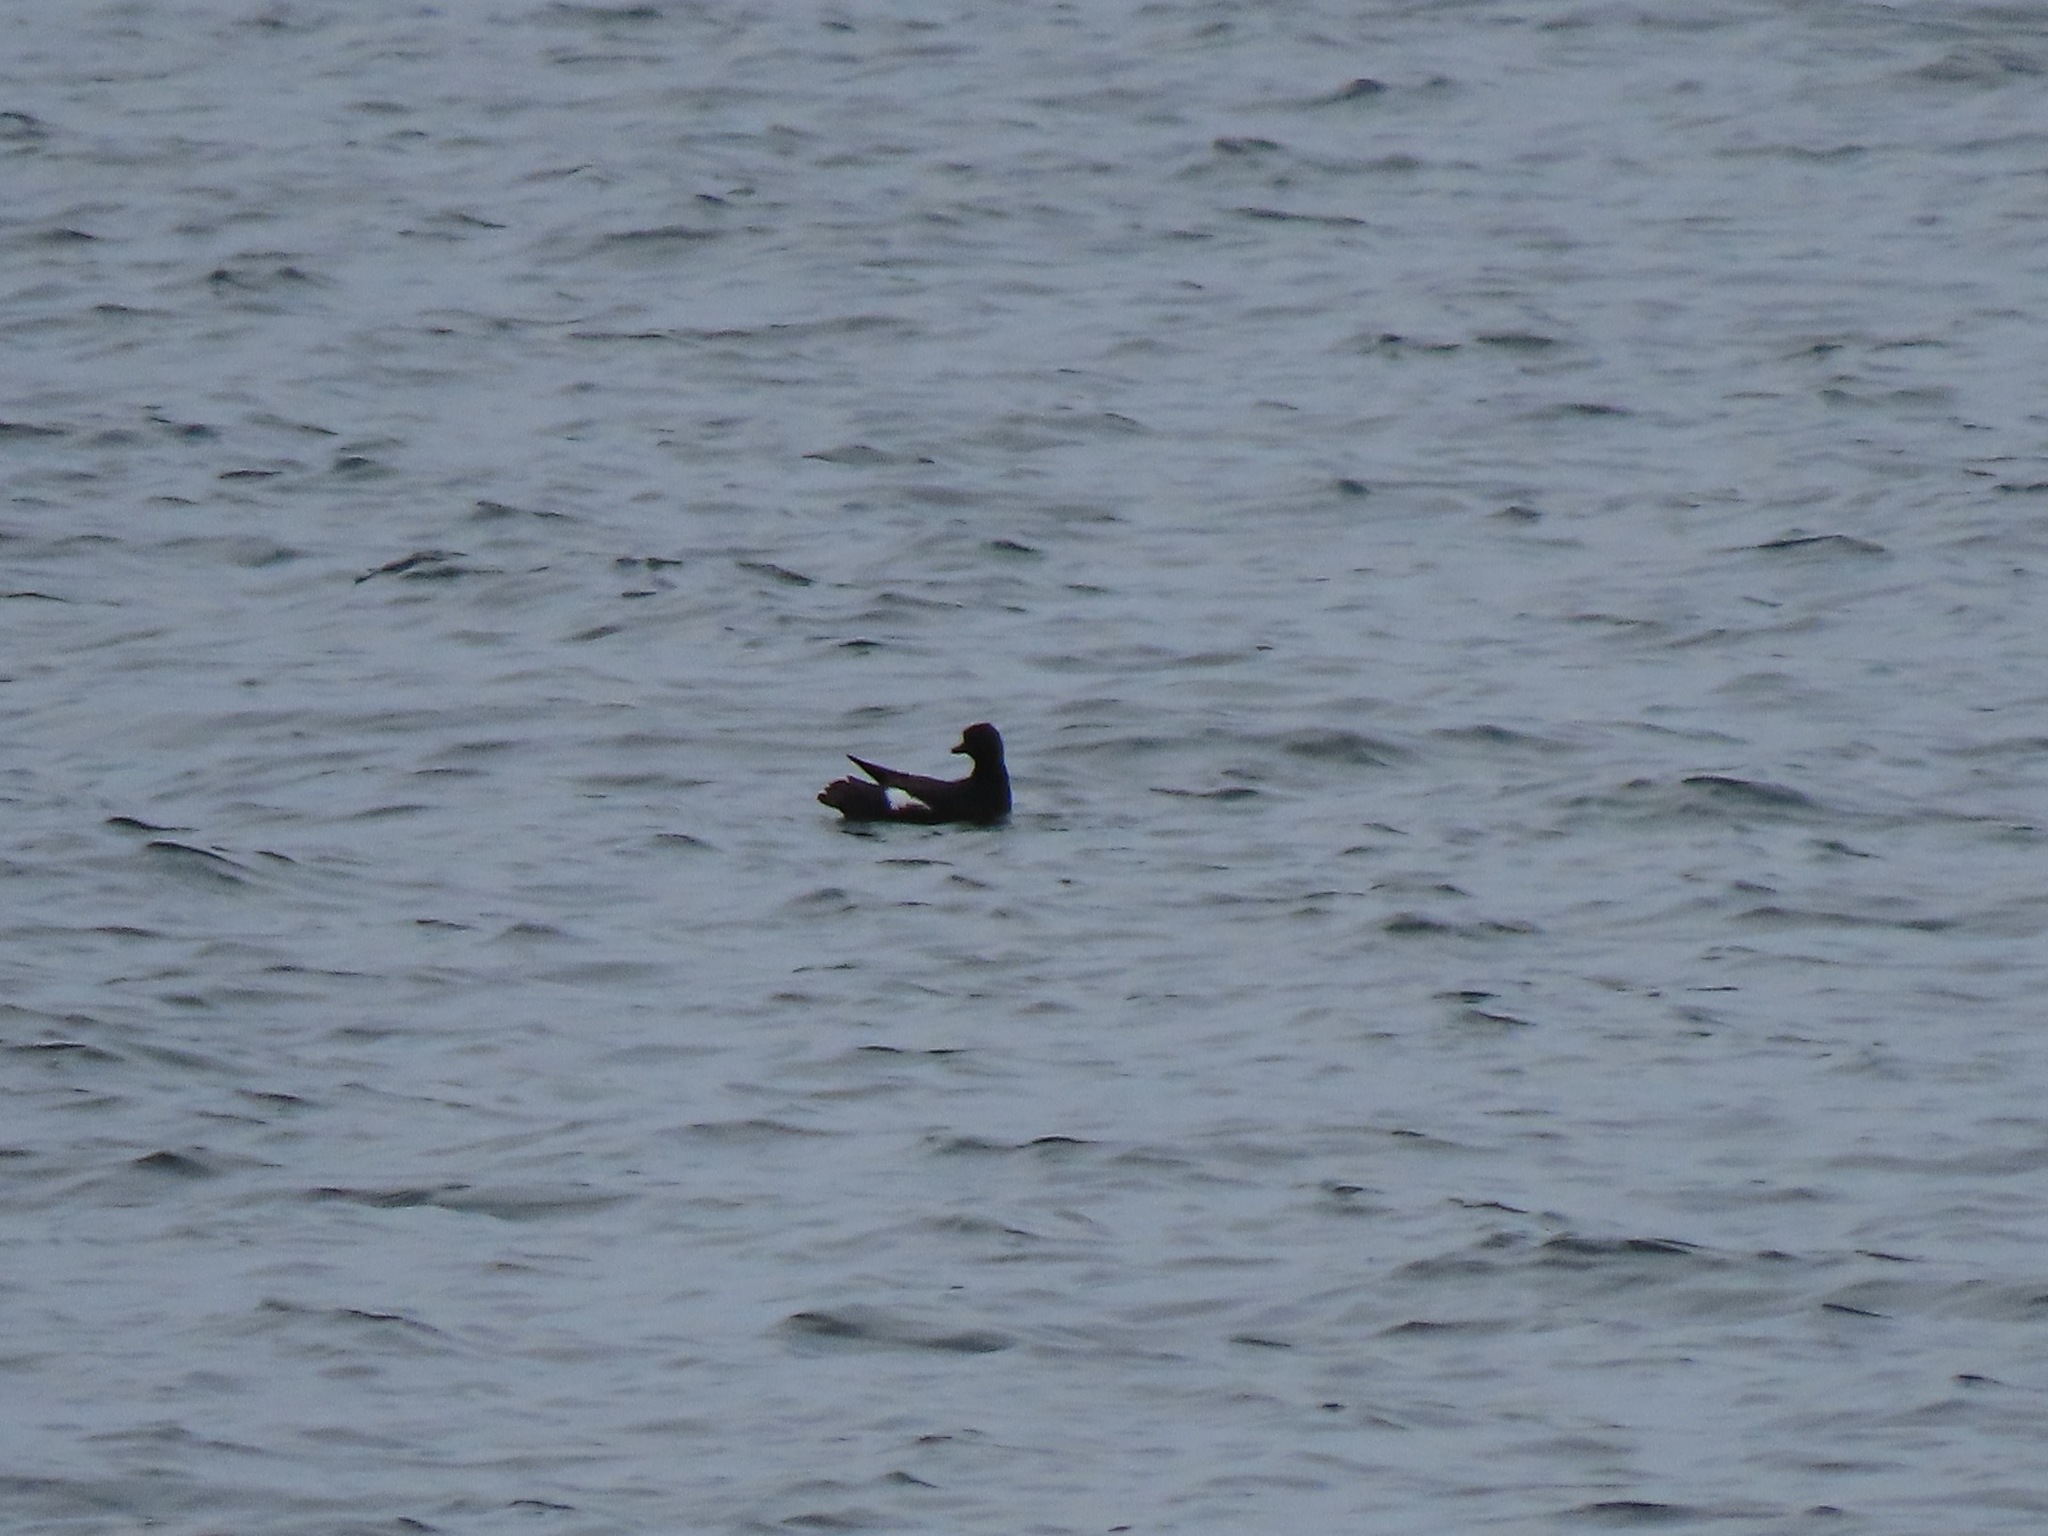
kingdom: Animalia
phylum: Chordata
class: Aves
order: Charadriiformes
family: Alcidae
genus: Cepphus
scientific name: Cepphus columba
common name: Pigeon guillemot
